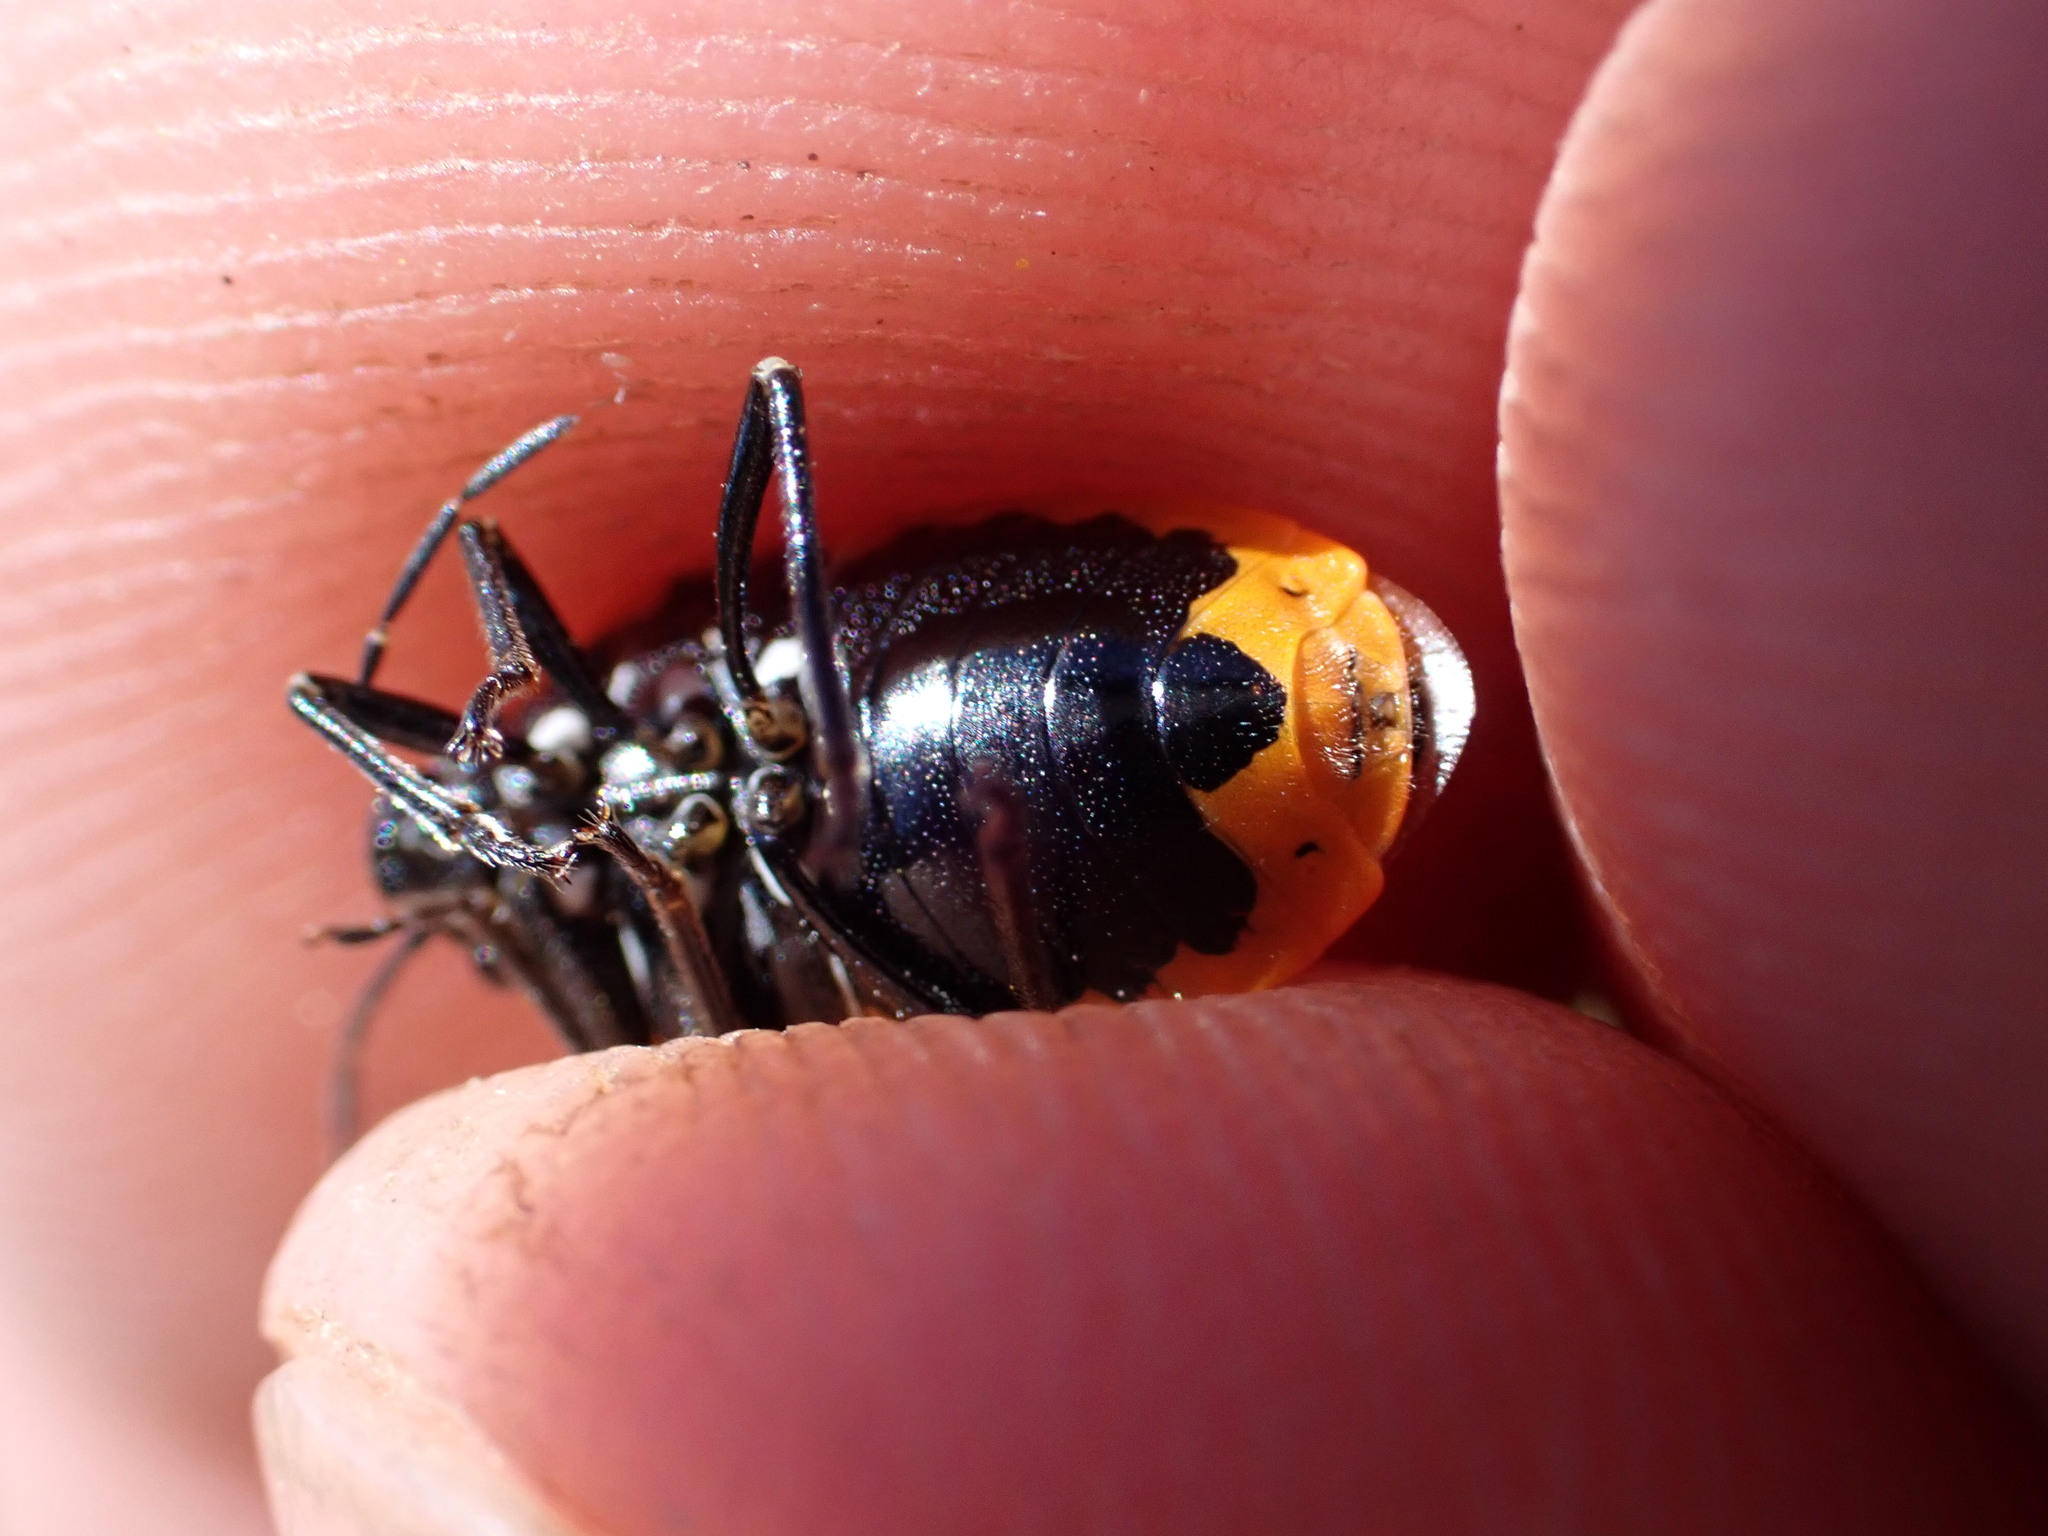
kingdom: Animalia
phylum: Arthropoda
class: Insecta
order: Hemiptera
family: Pentatomidae
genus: Eurydema
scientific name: Eurydema ornata
